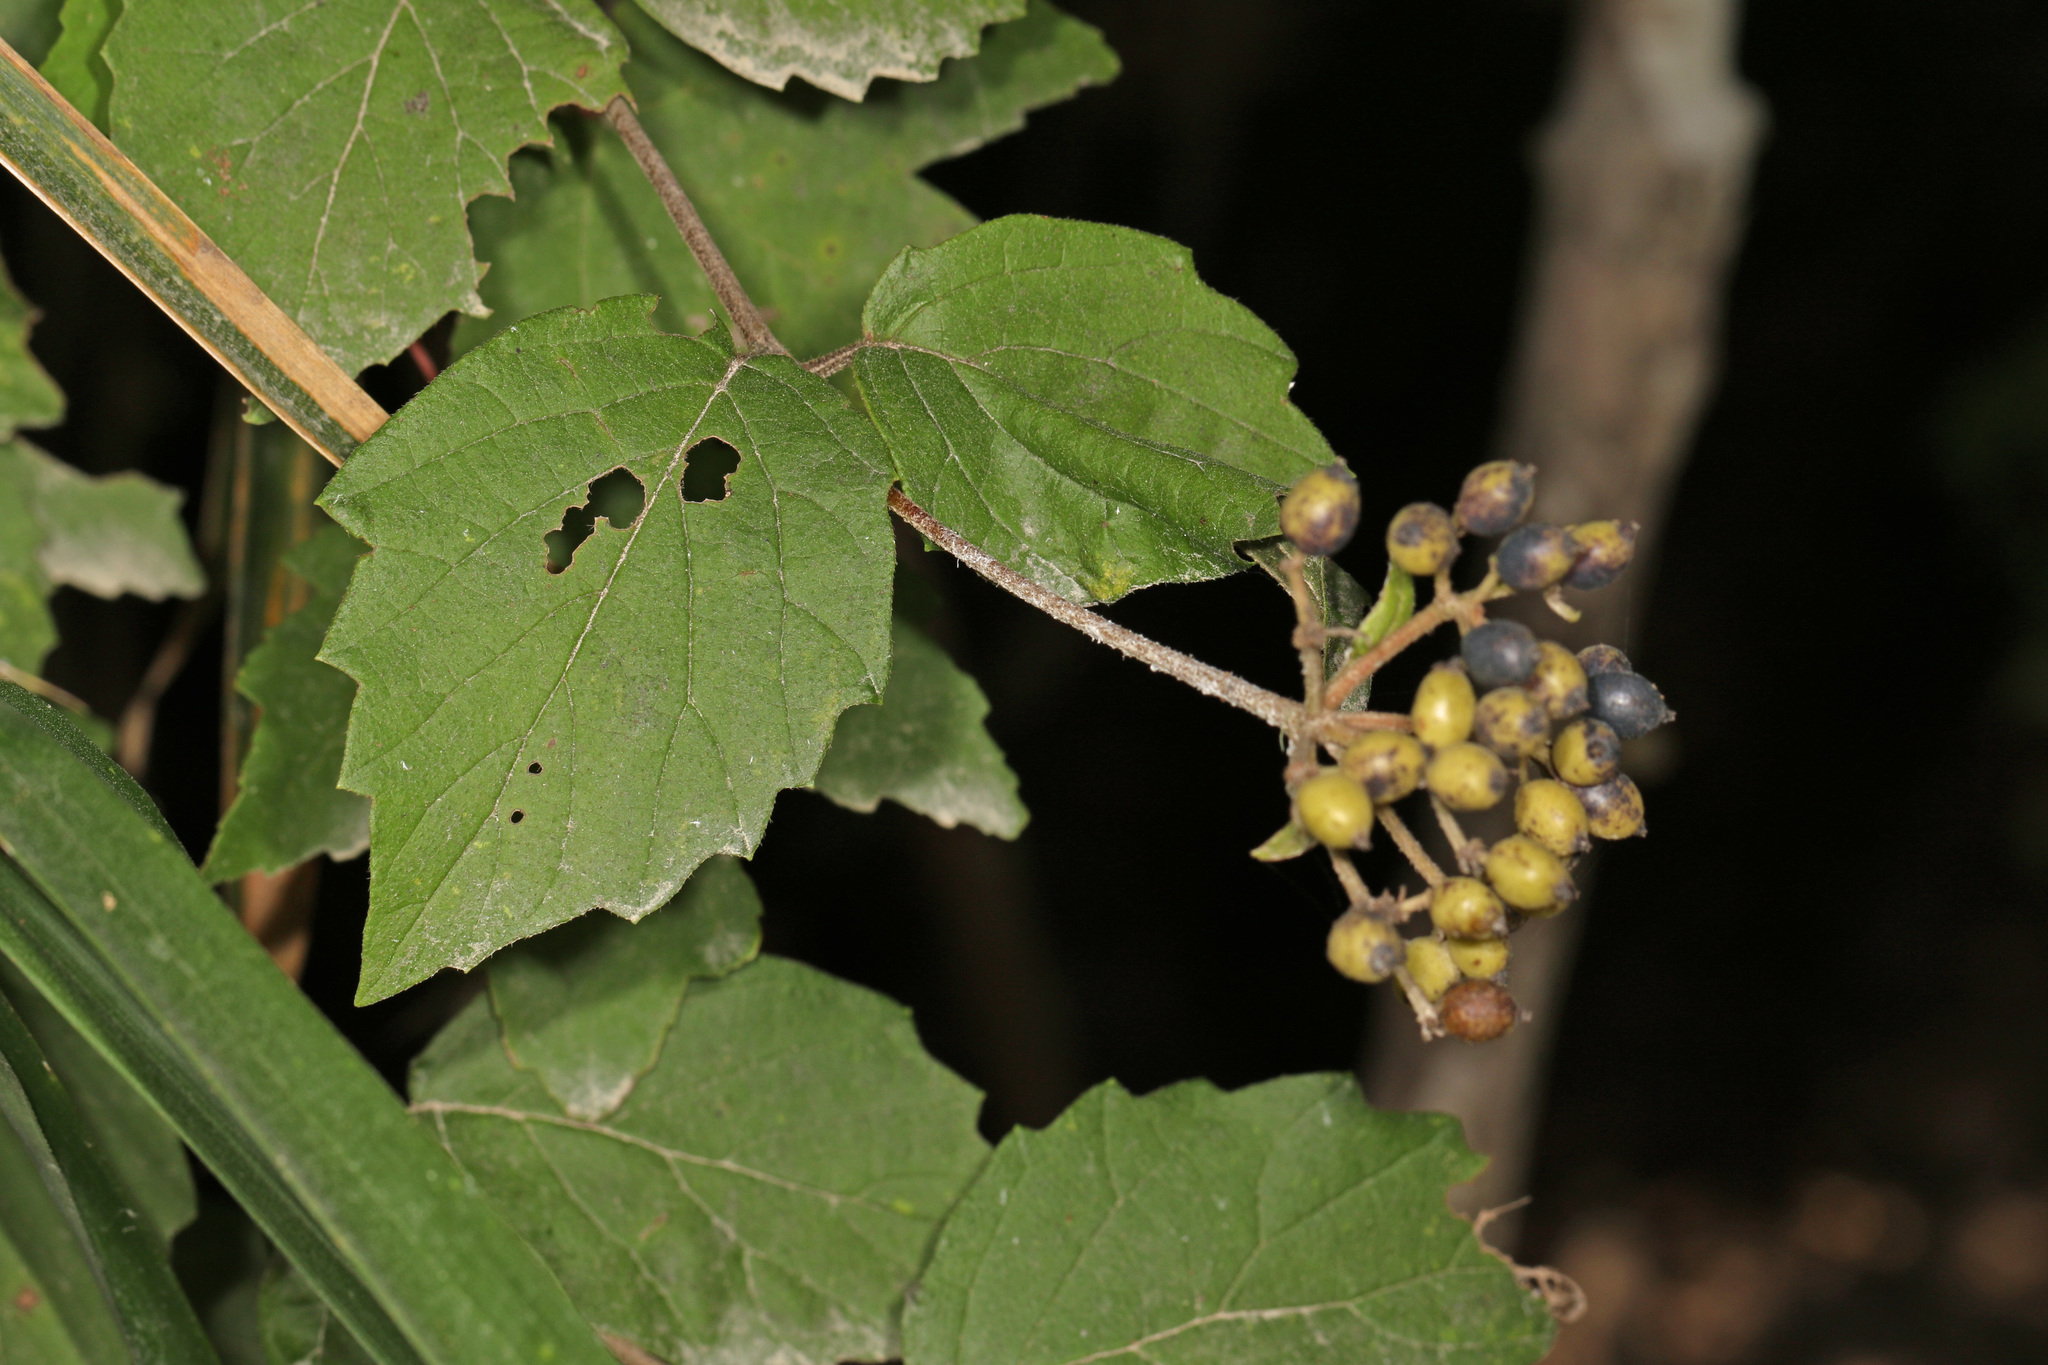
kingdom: Plantae
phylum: Tracheophyta
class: Magnoliopsida
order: Dipsacales
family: Viburnaceae
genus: Viburnum
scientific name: Viburnum scabrellum
